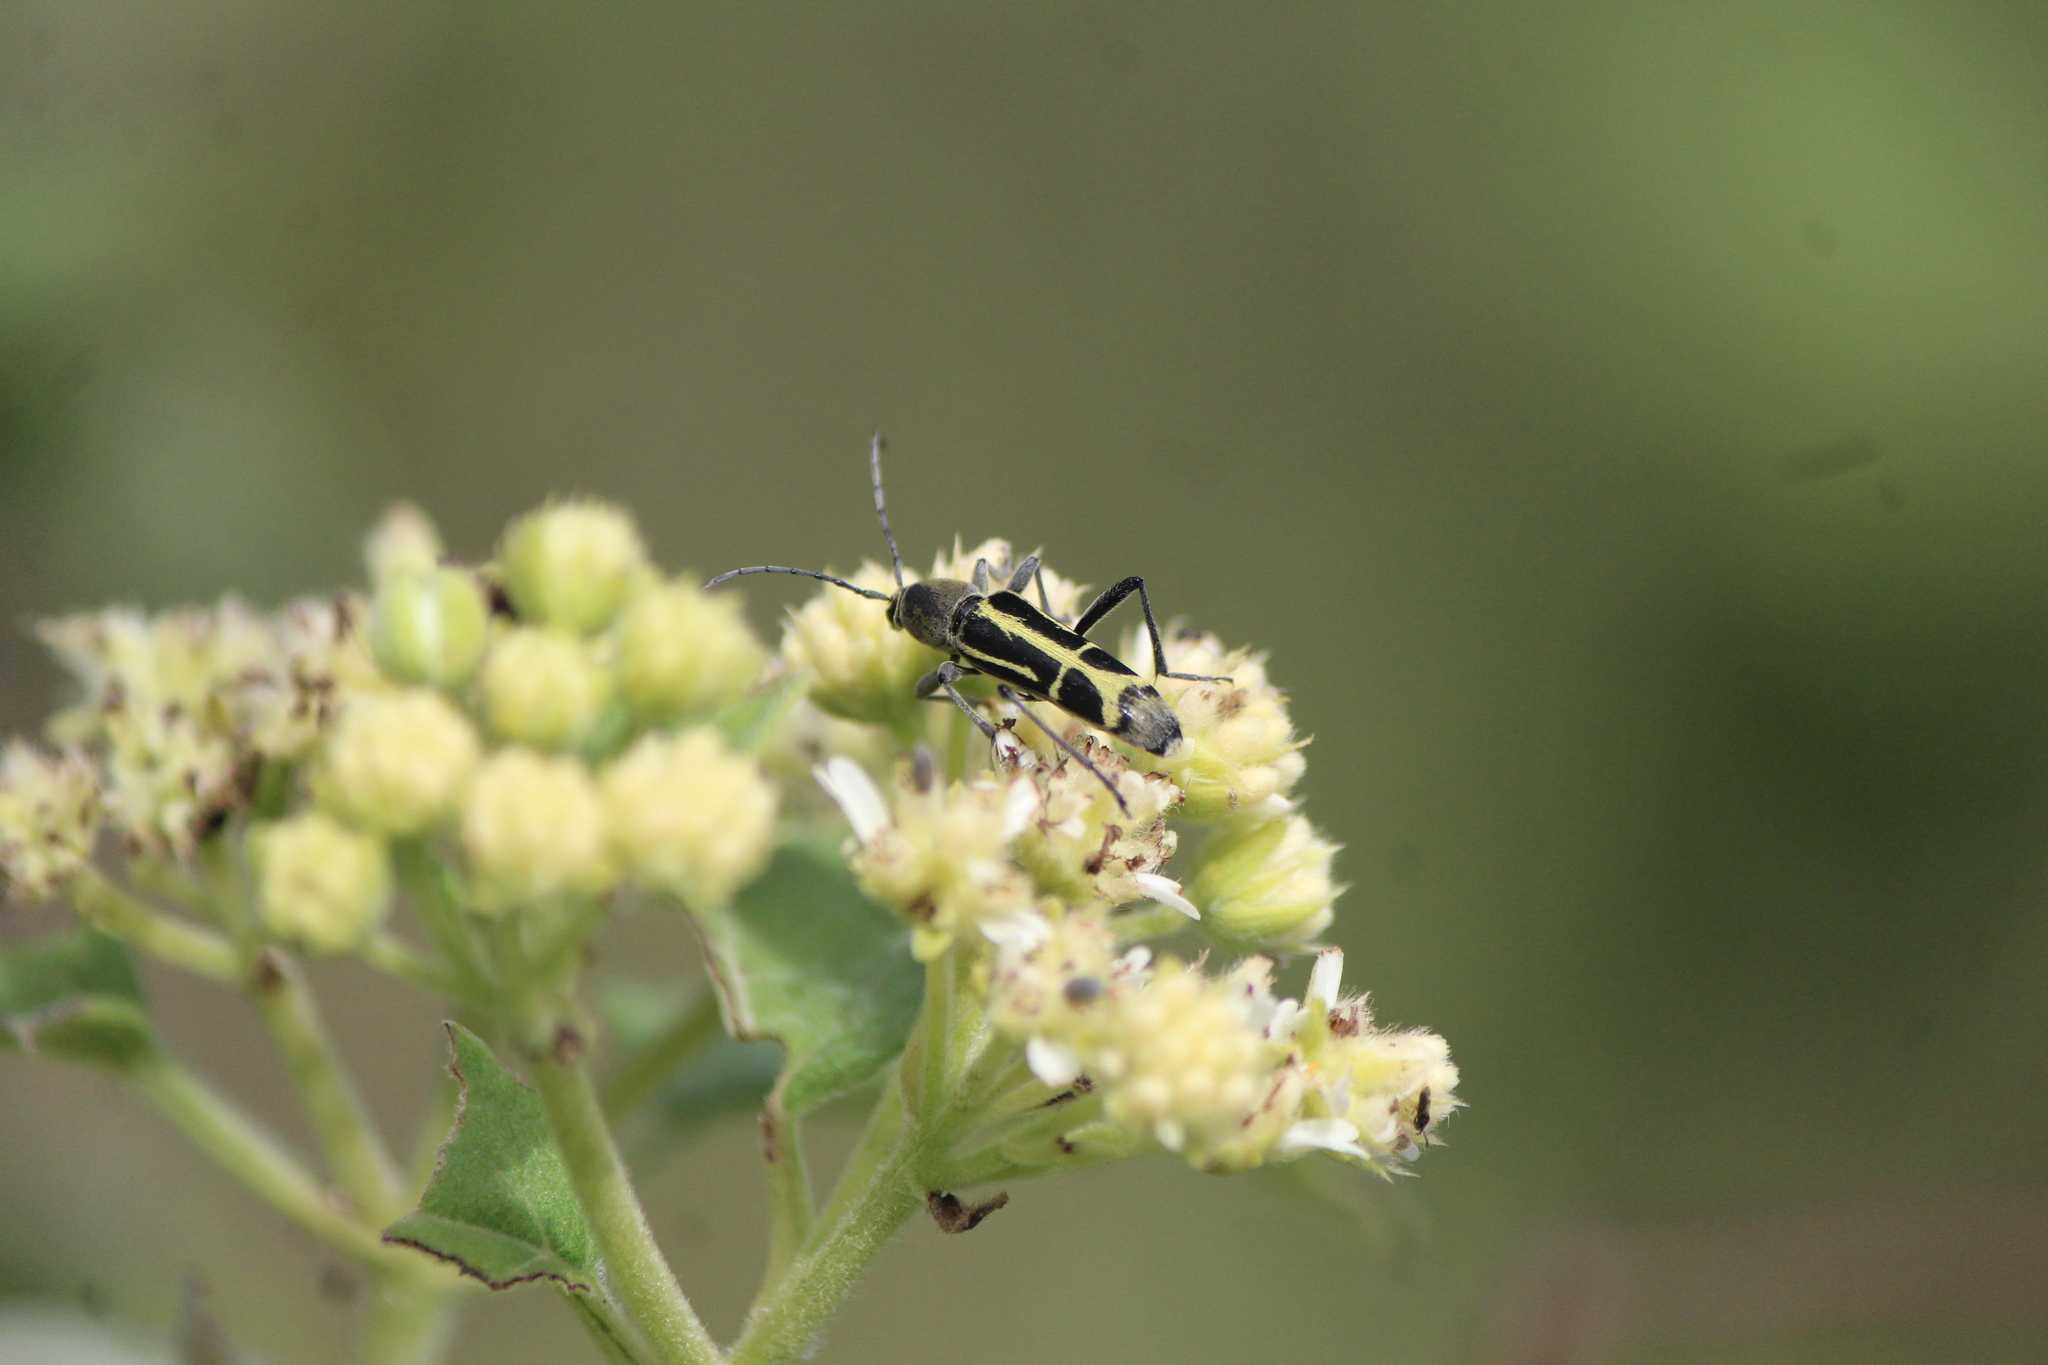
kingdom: Animalia
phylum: Arthropoda
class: Insecta
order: Coleoptera
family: Cerambycidae
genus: Tanyochraethes
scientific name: Tanyochraethes clathratus
